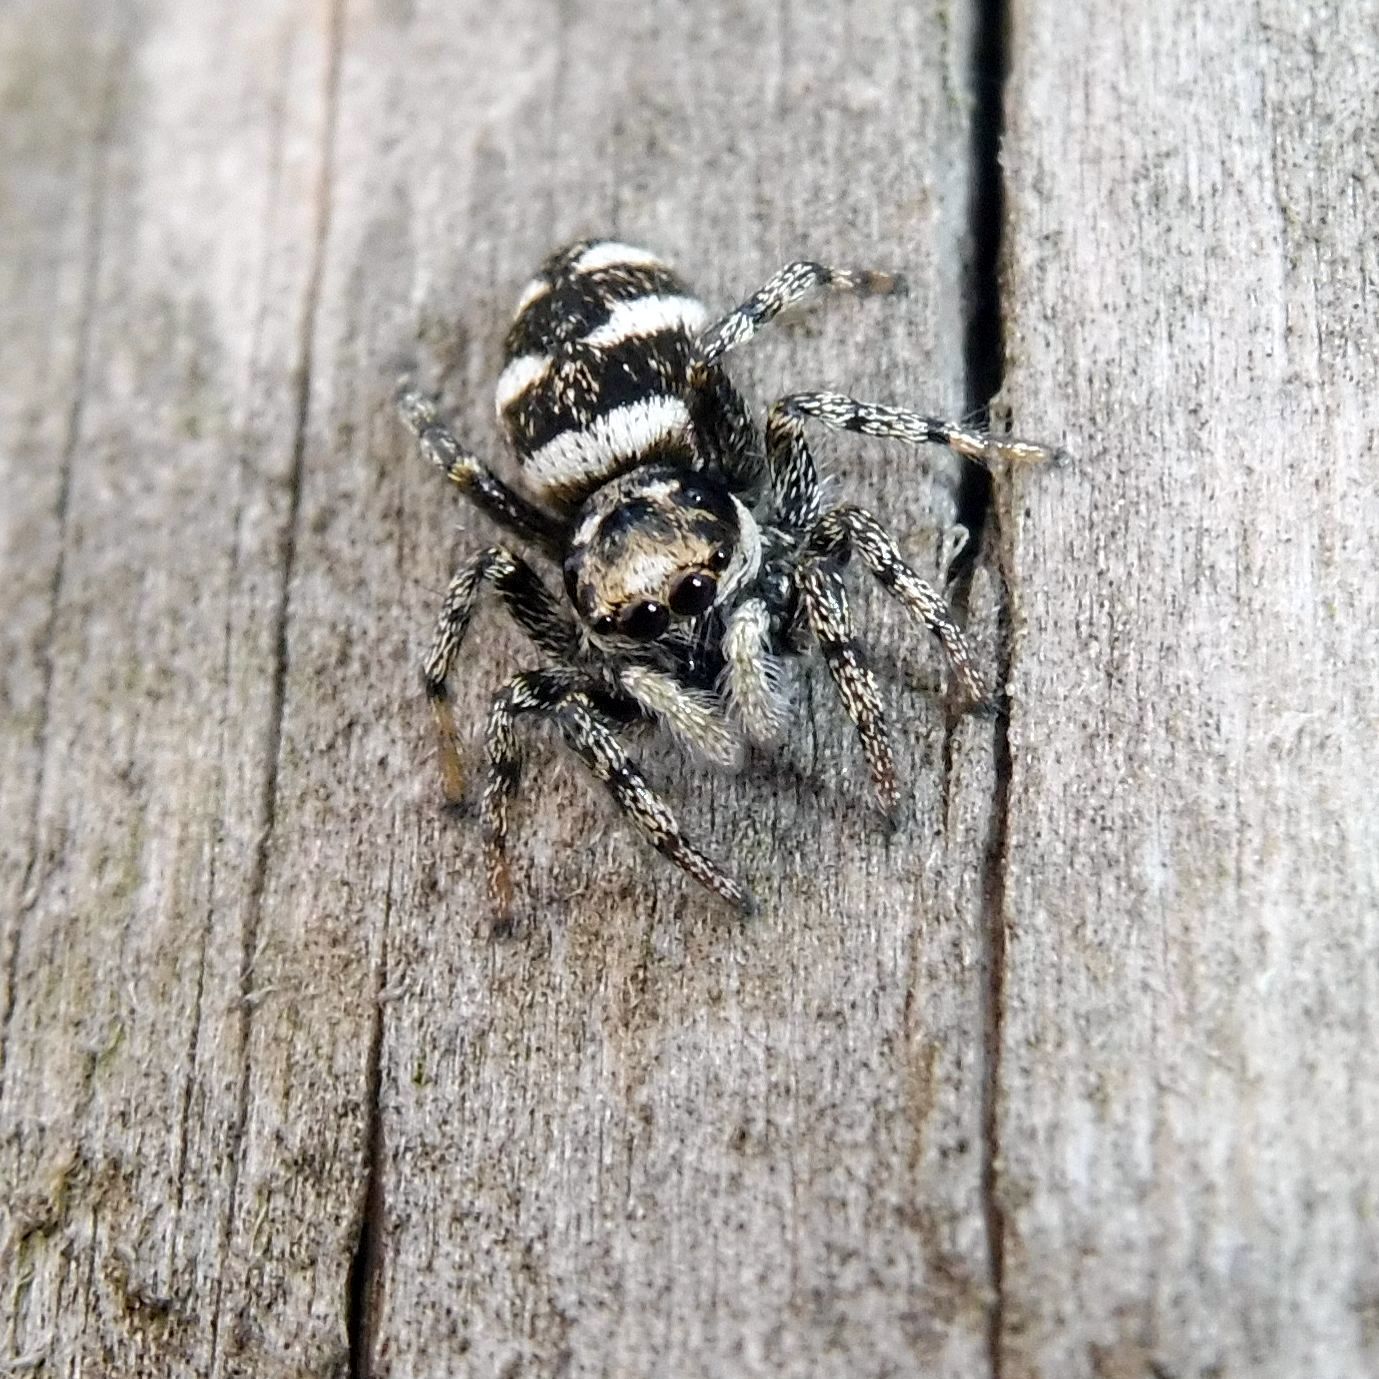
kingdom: Animalia
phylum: Arthropoda
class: Arachnida
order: Araneae
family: Salticidae
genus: Salticus
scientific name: Salticus scenicus
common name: Zebra jumper
